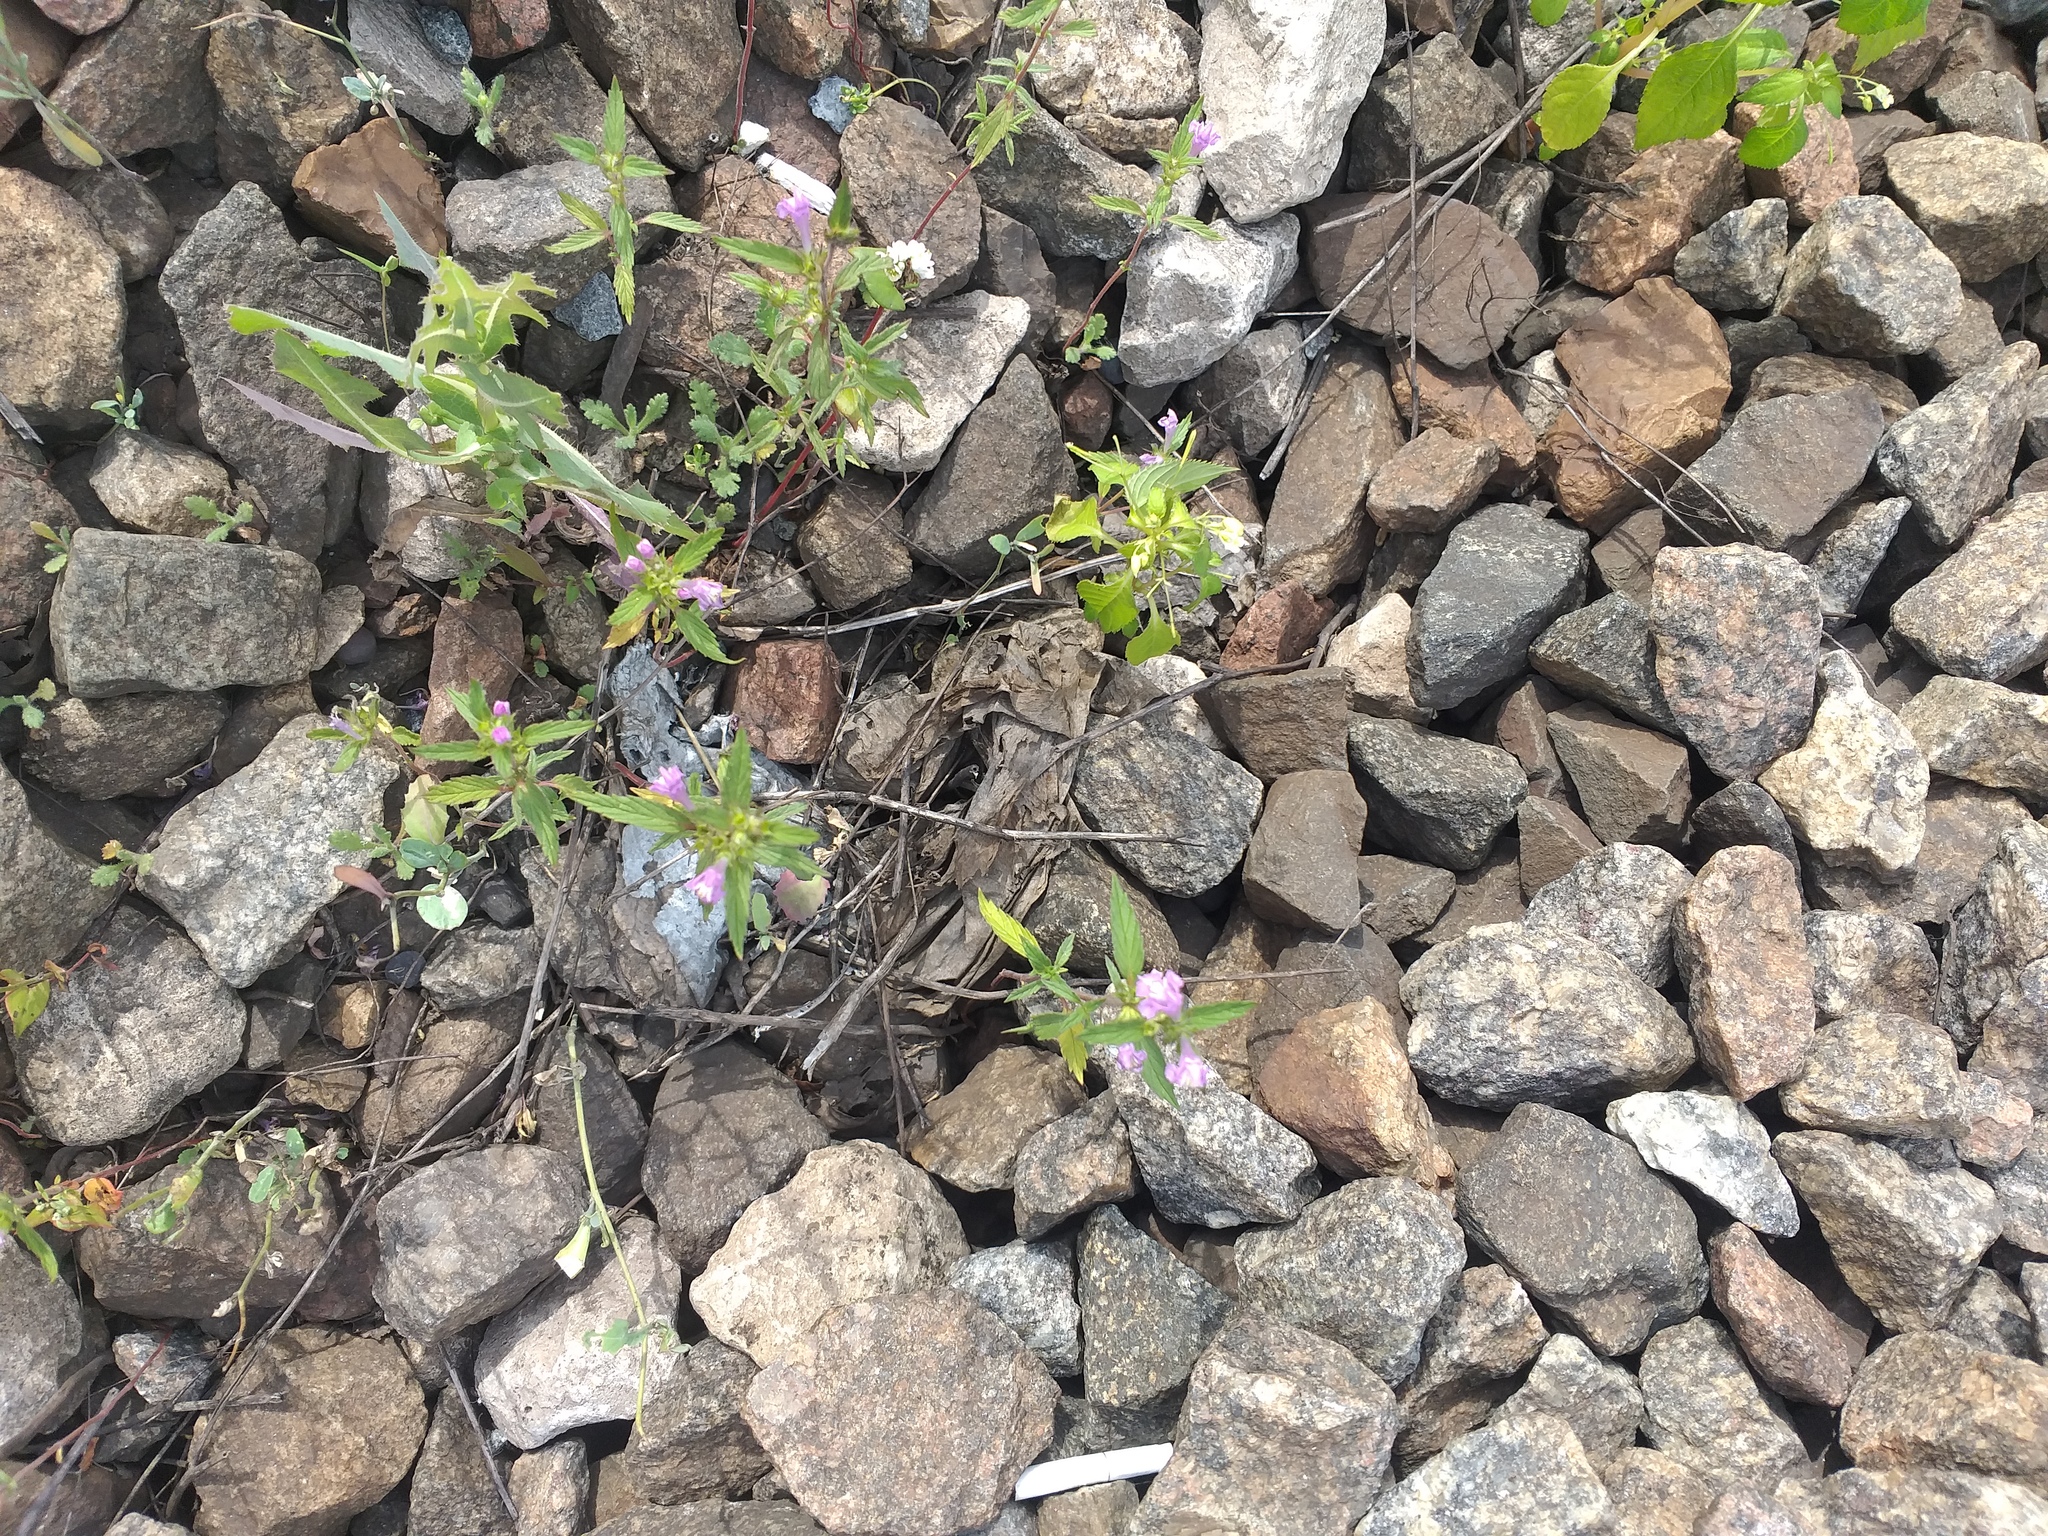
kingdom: Plantae
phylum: Tracheophyta
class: Magnoliopsida
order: Lamiales
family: Lamiaceae
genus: Galeopsis
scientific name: Galeopsis ladanum
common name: Broad-leaved hemp-nettle
